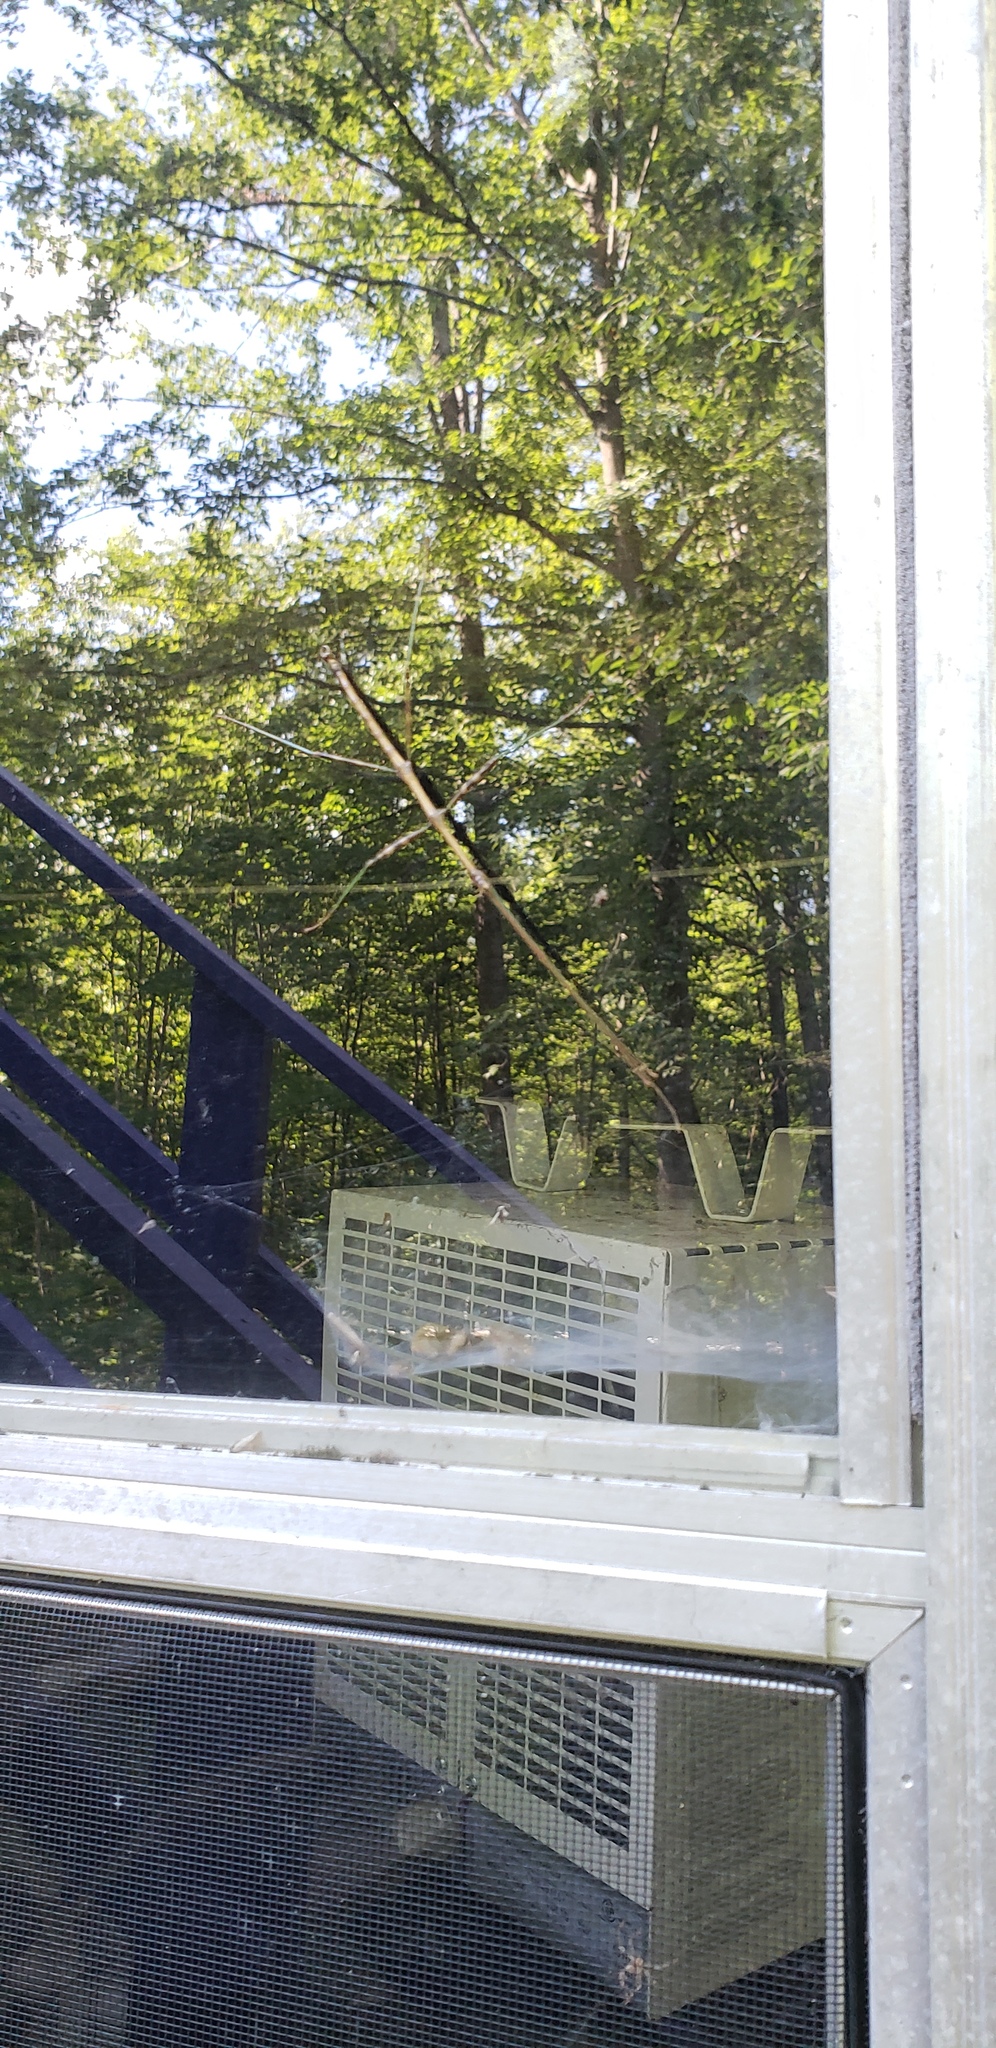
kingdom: Animalia
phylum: Arthropoda
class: Insecta
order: Phasmida
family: Diapheromeridae
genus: Diapheromera
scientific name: Diapheromera femorata
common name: Common american walkingstick
